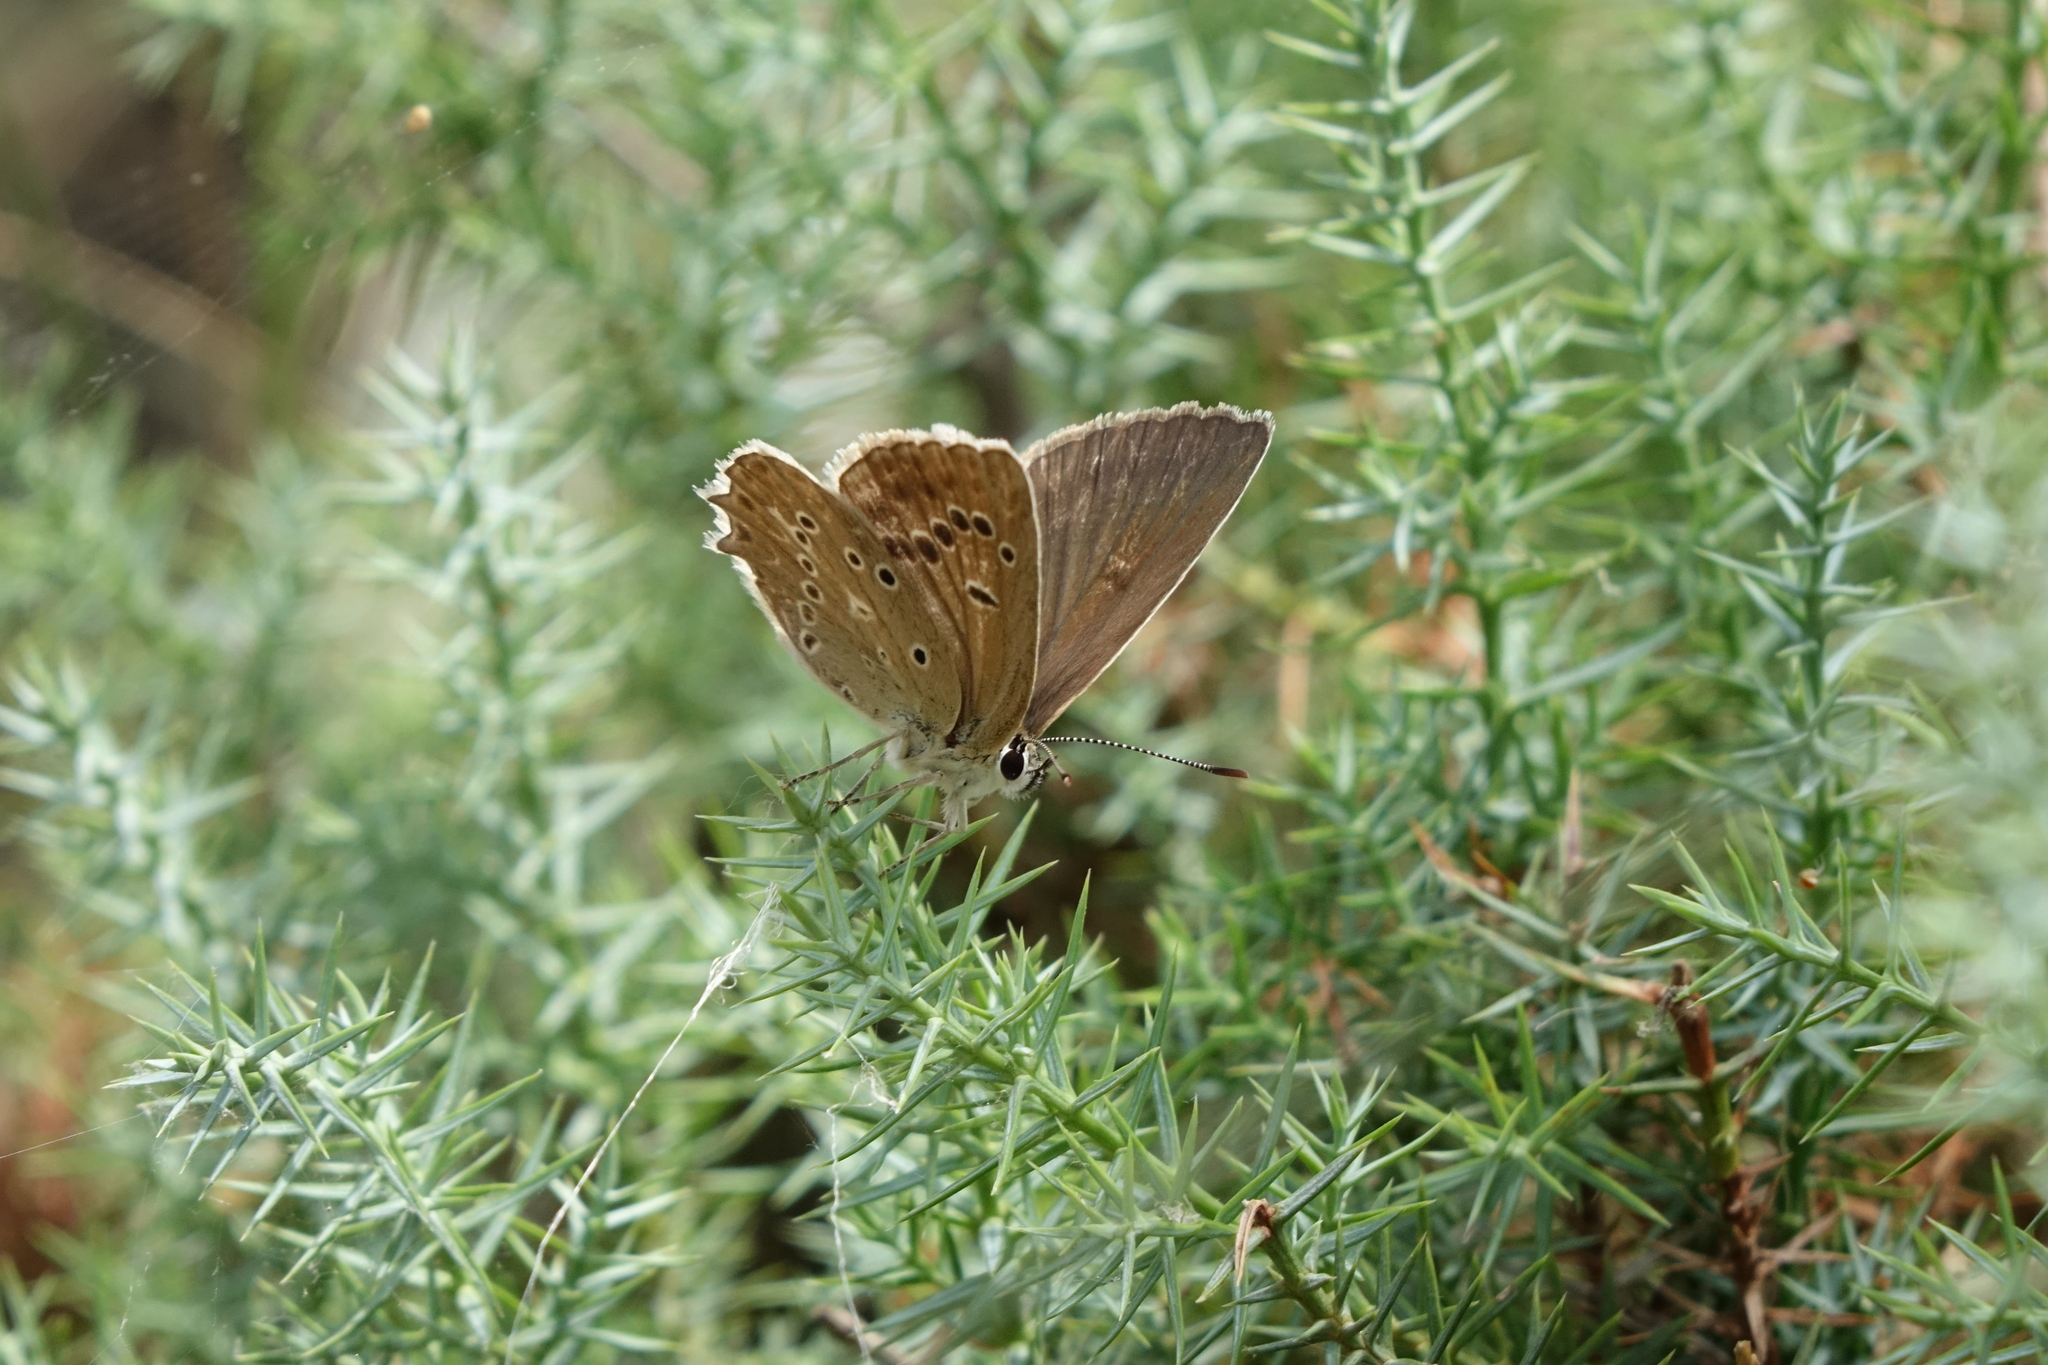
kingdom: Animalia
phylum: Arthropoda
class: Insecta
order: Lepidoptera
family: Lycaenidae
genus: Polyommatus
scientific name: Polyommatus daphnis
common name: Meleager's blue
